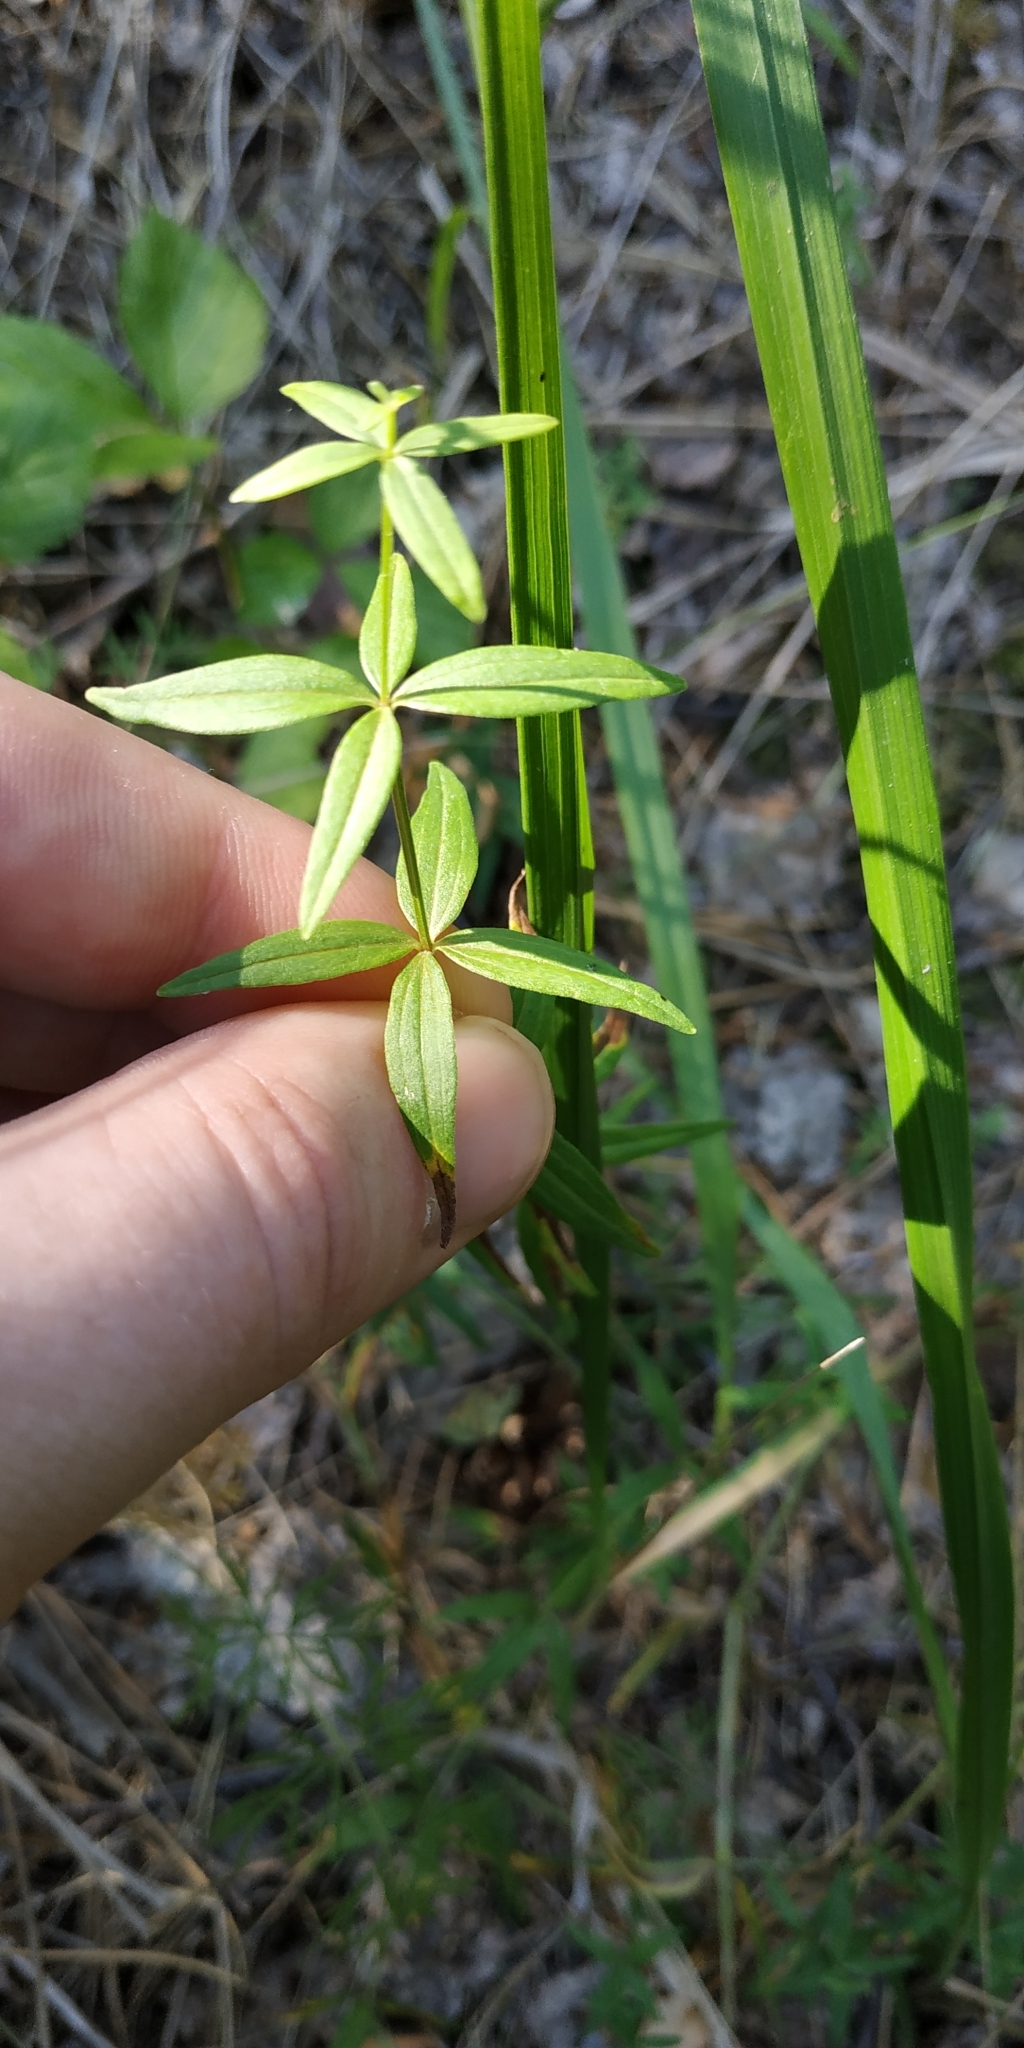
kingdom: Plantae
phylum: Tracheophyta
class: Magnoliopsida
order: Gentianales
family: Rubiaceae
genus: Galium
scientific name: Galium boreale
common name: Northern bedstraw
